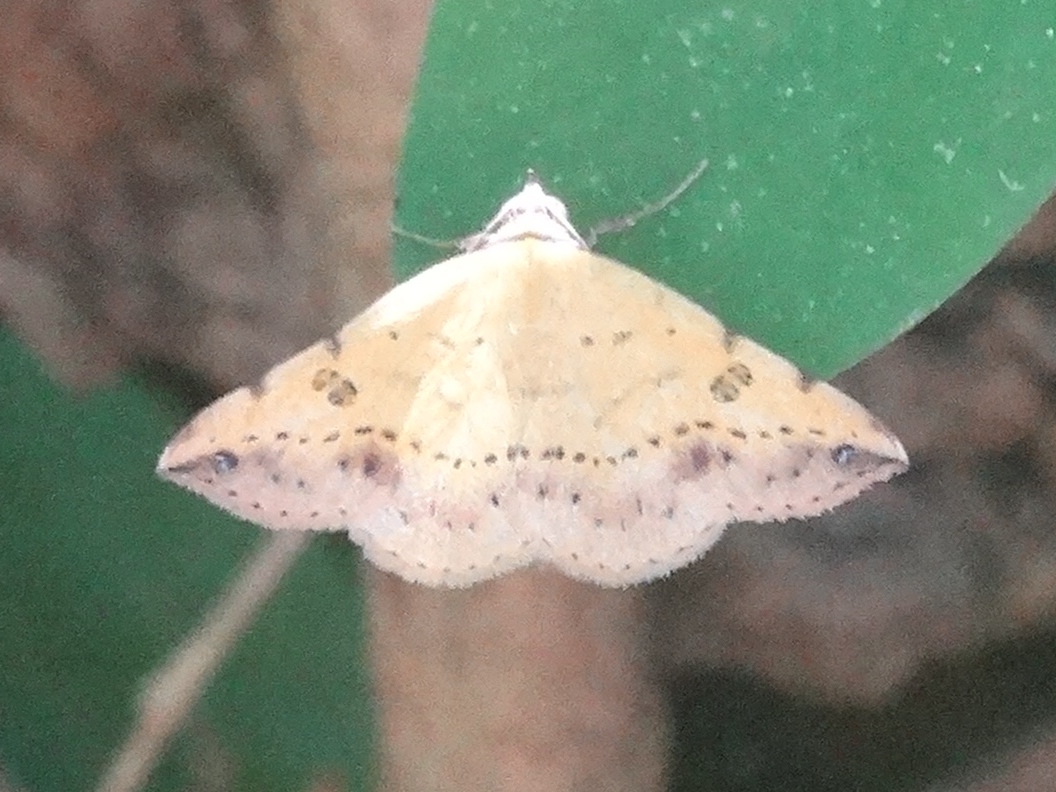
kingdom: Animalia
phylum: Arthropoda
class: Insecta
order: Lepidoptera
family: Erebidae
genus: Hemeroplanis
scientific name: Hemeroplanis
